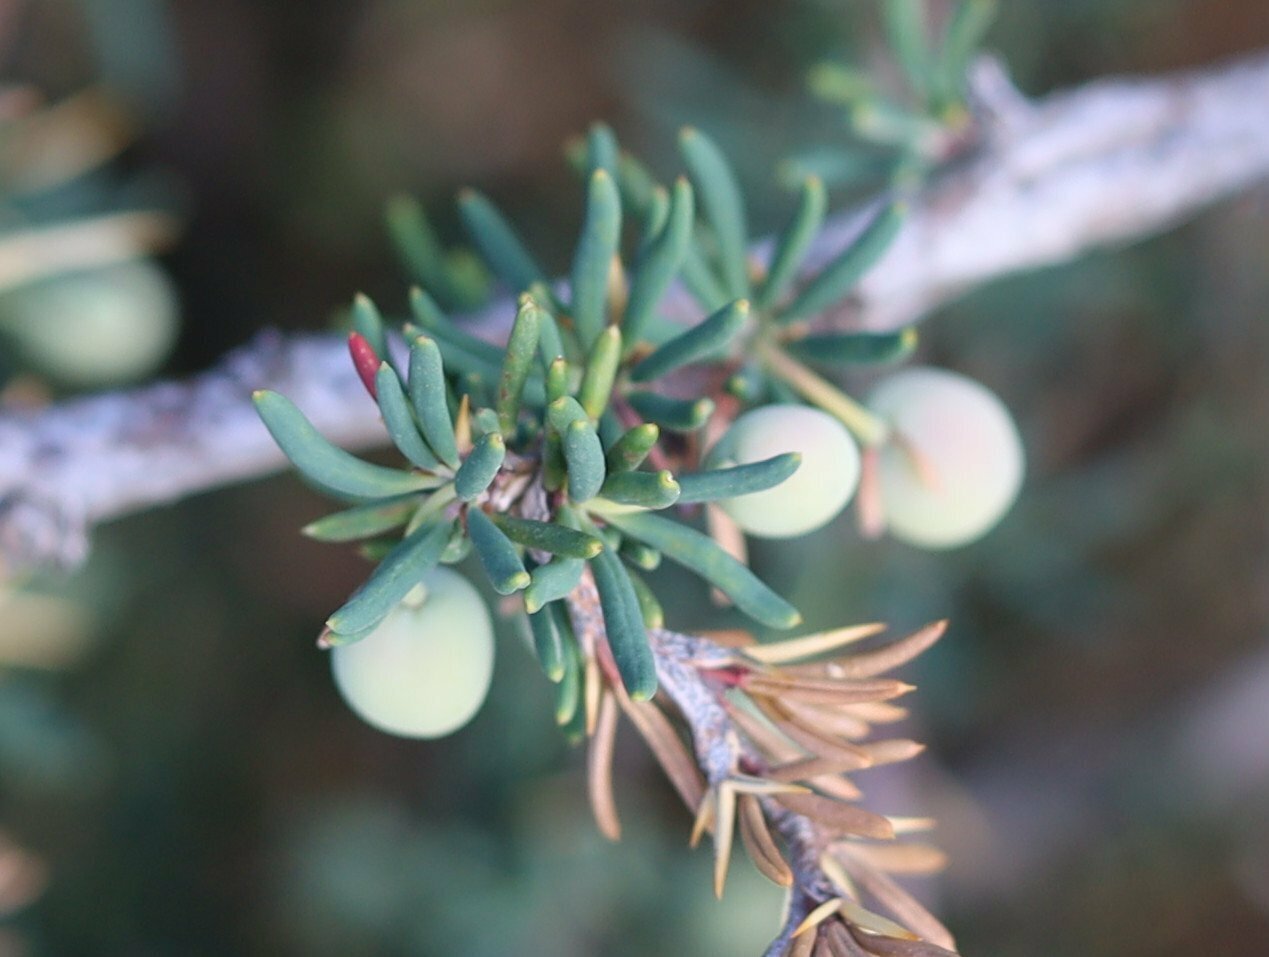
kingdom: Plantae
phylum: Tracheophyta
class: Magnoliopsida
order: Ranunculales
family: Berberidaceae
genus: Berberis
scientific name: Berberis empetrifolia
